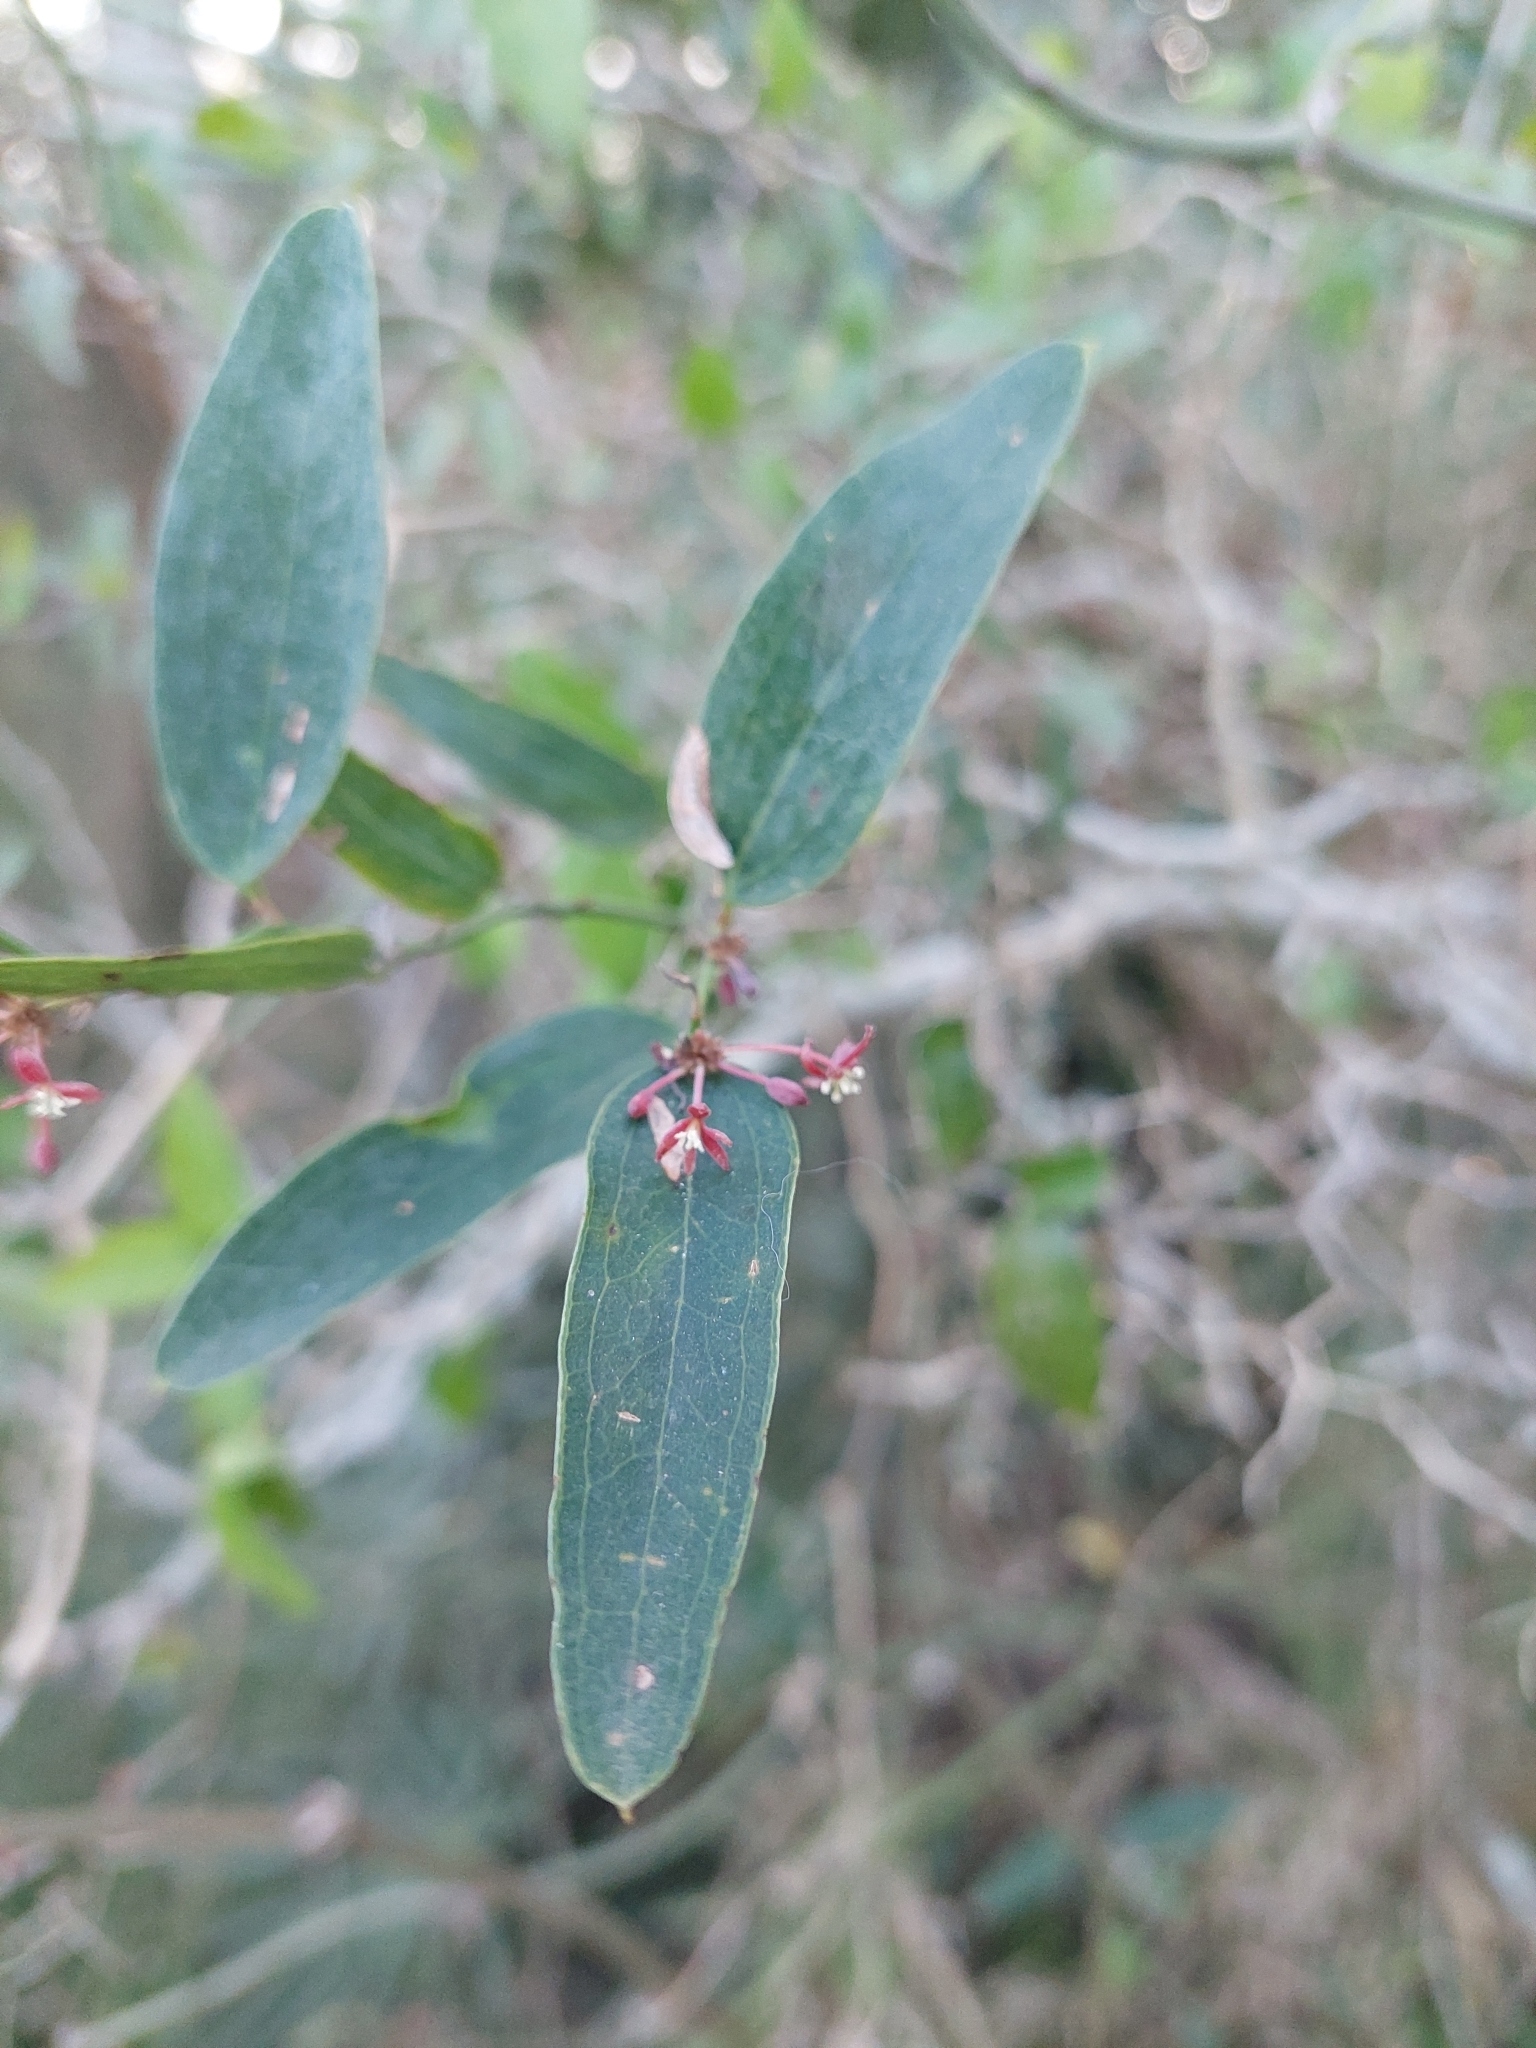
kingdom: Plantae
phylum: Tracheophyta
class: Liliopsida
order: Liliales
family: Smilacaceae
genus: Smilax
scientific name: Smilax campestris
